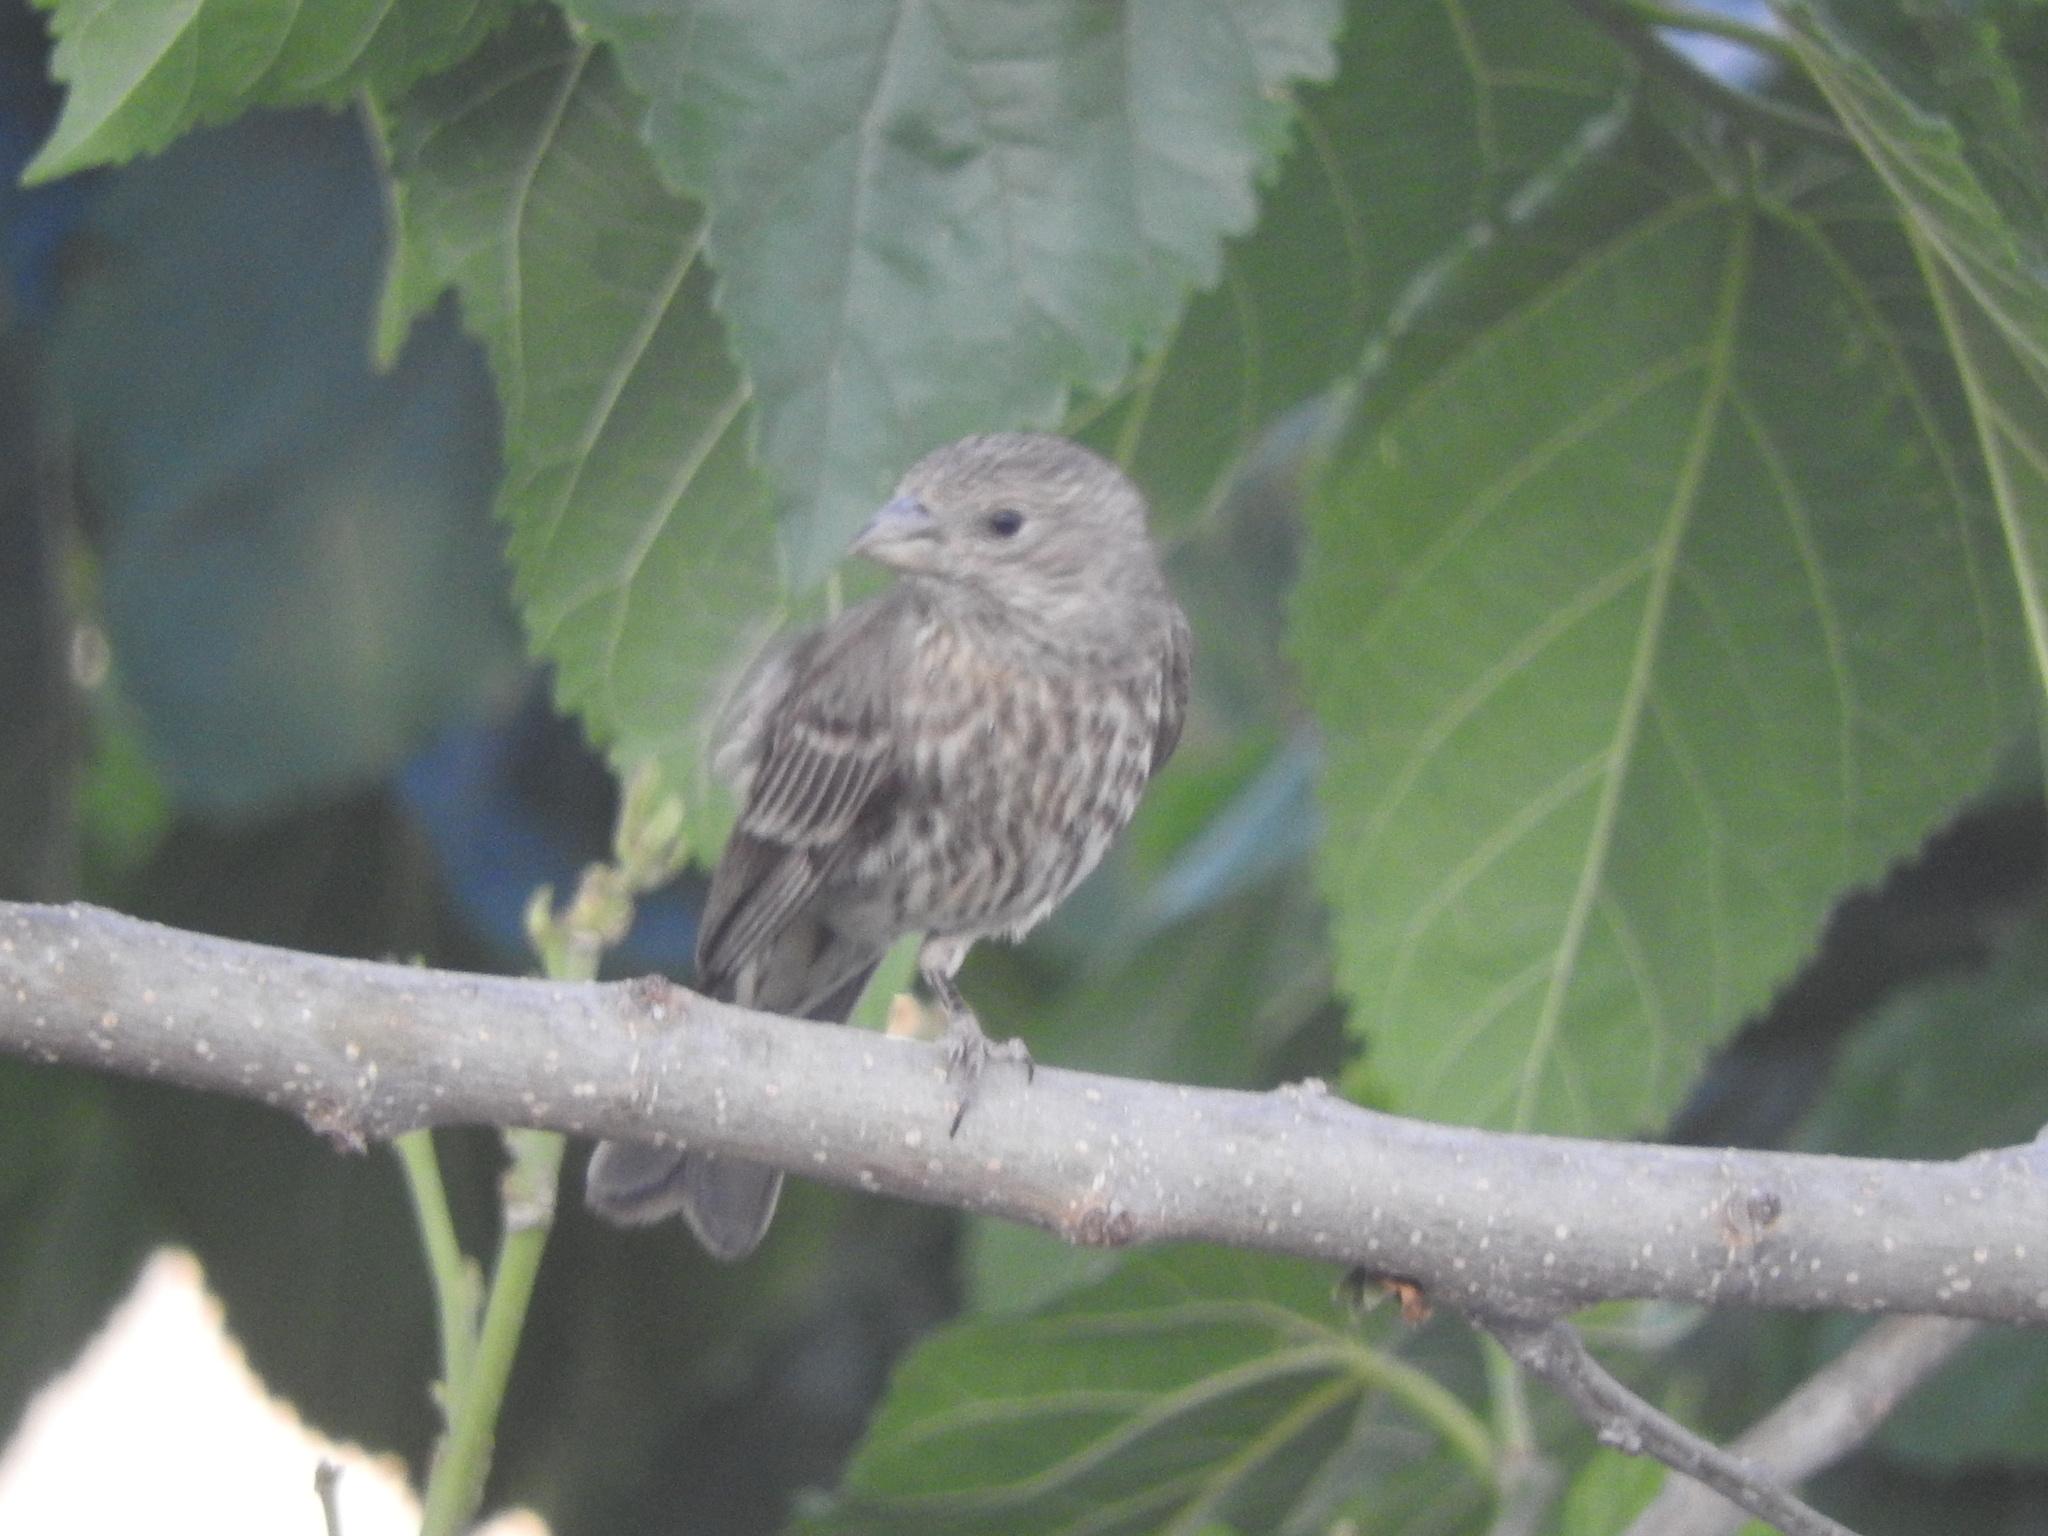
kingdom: Animalia
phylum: Chordata
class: Aves
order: Passeriformes
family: Fringillidae
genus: Haemorhous
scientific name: Haemorhous mexicanus
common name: House finch
